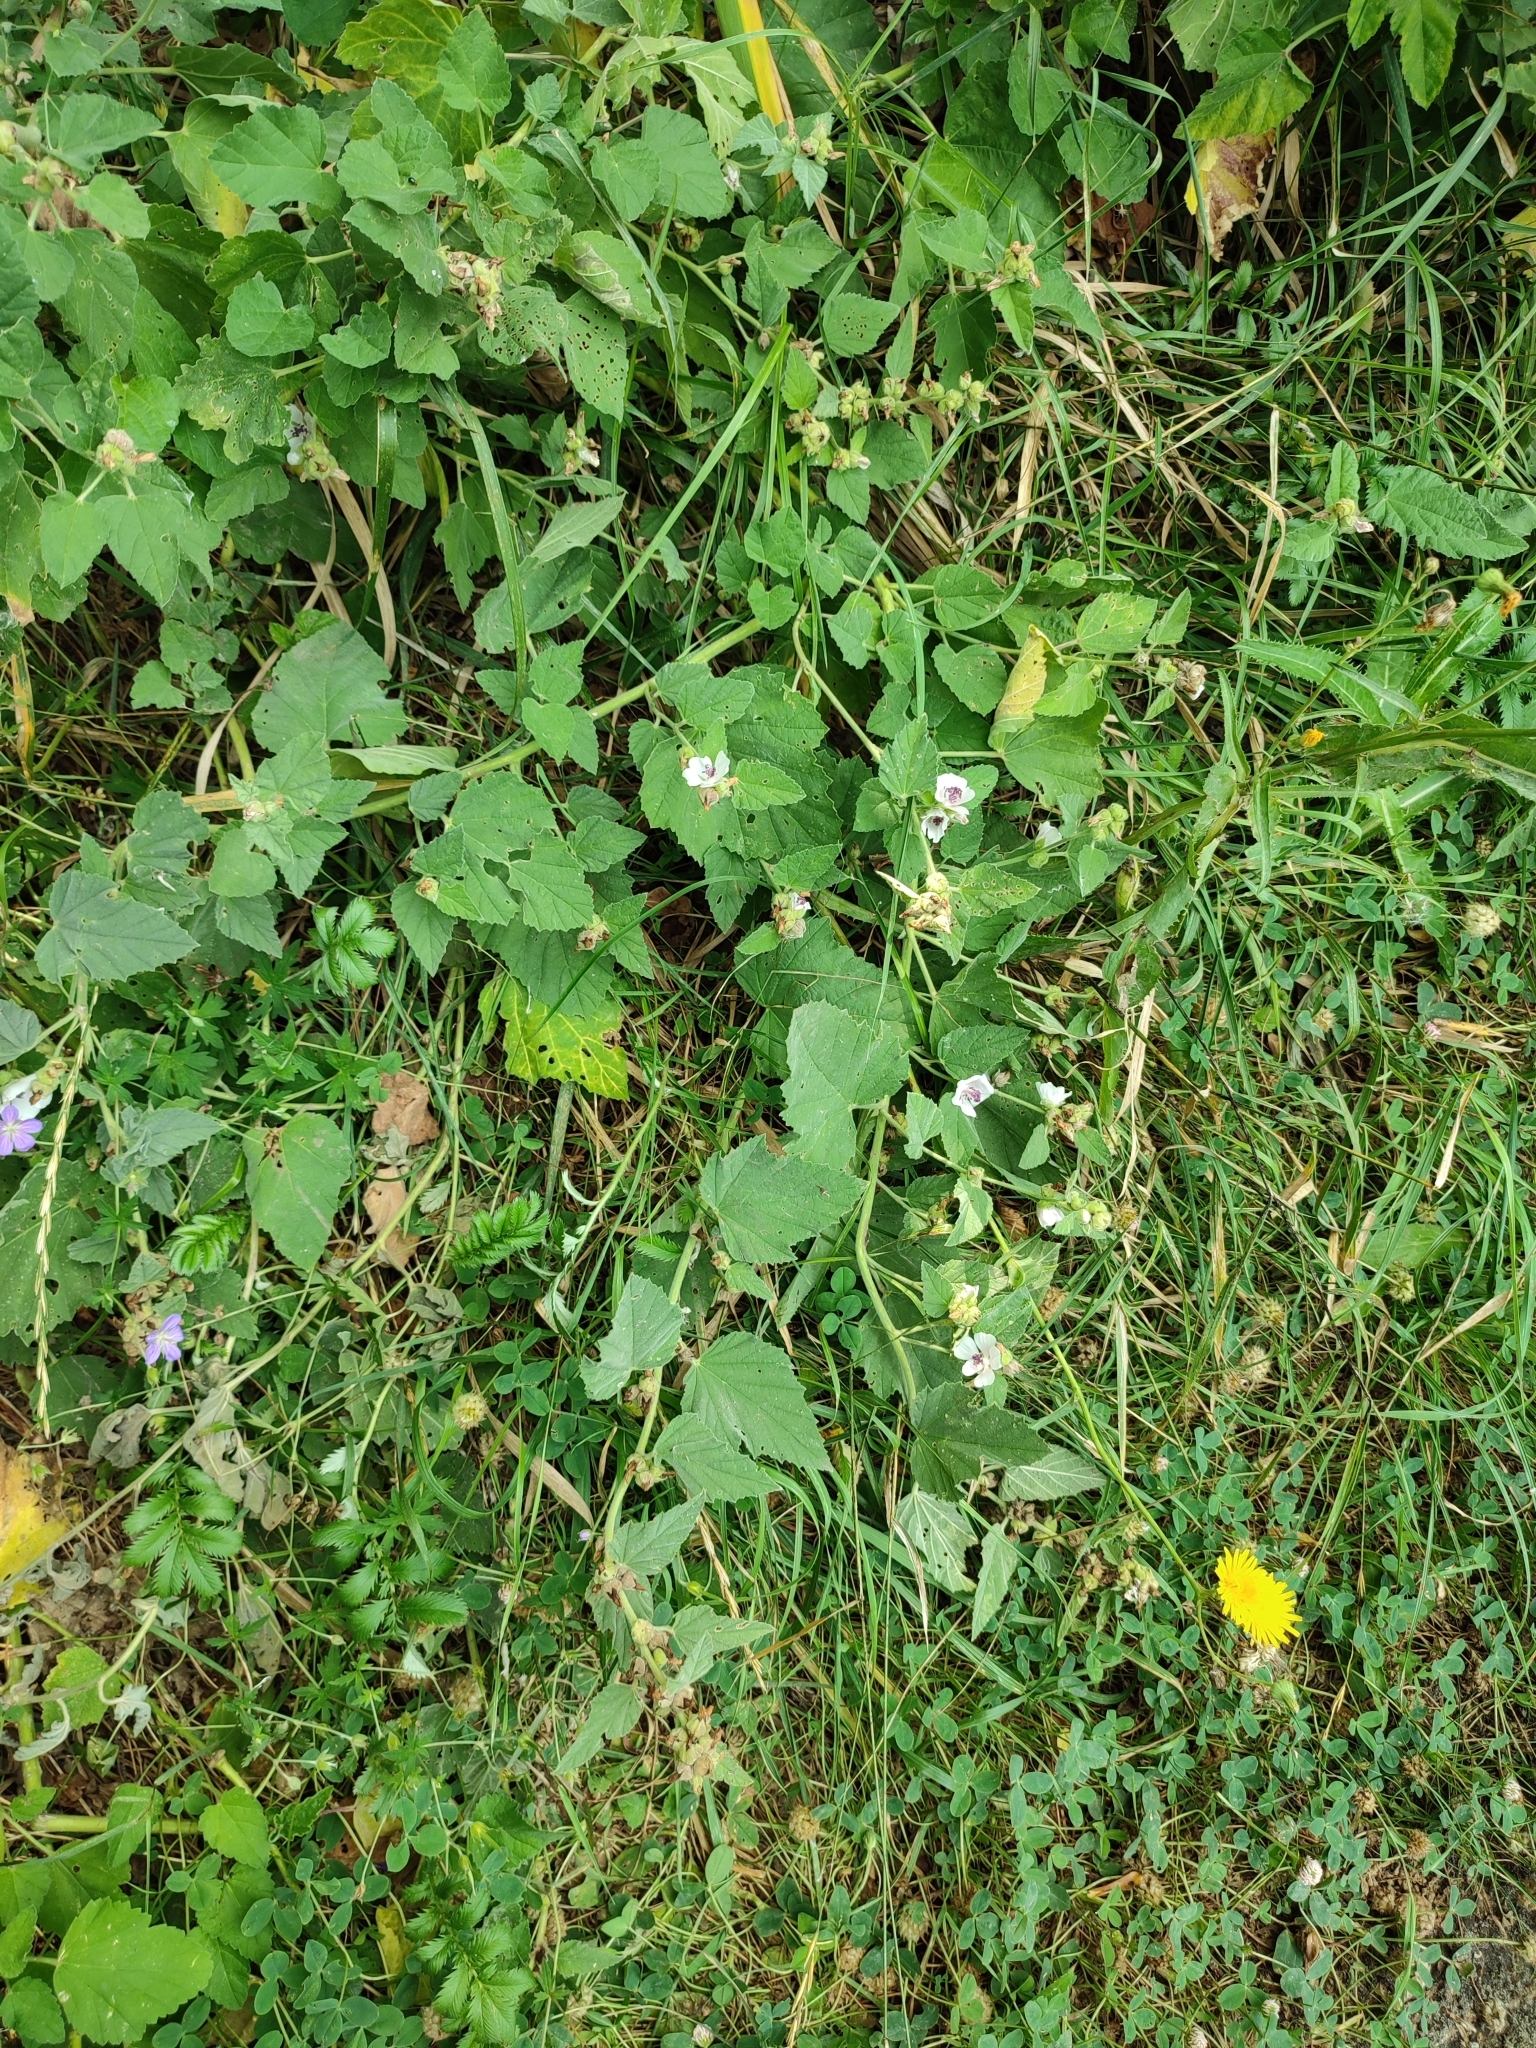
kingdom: Plantae
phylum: Tracheophyta
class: Magnoliopsida
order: Malvales
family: Malvaceae
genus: Althaea
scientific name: Althaea officinalis
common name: Marsh-mallow
